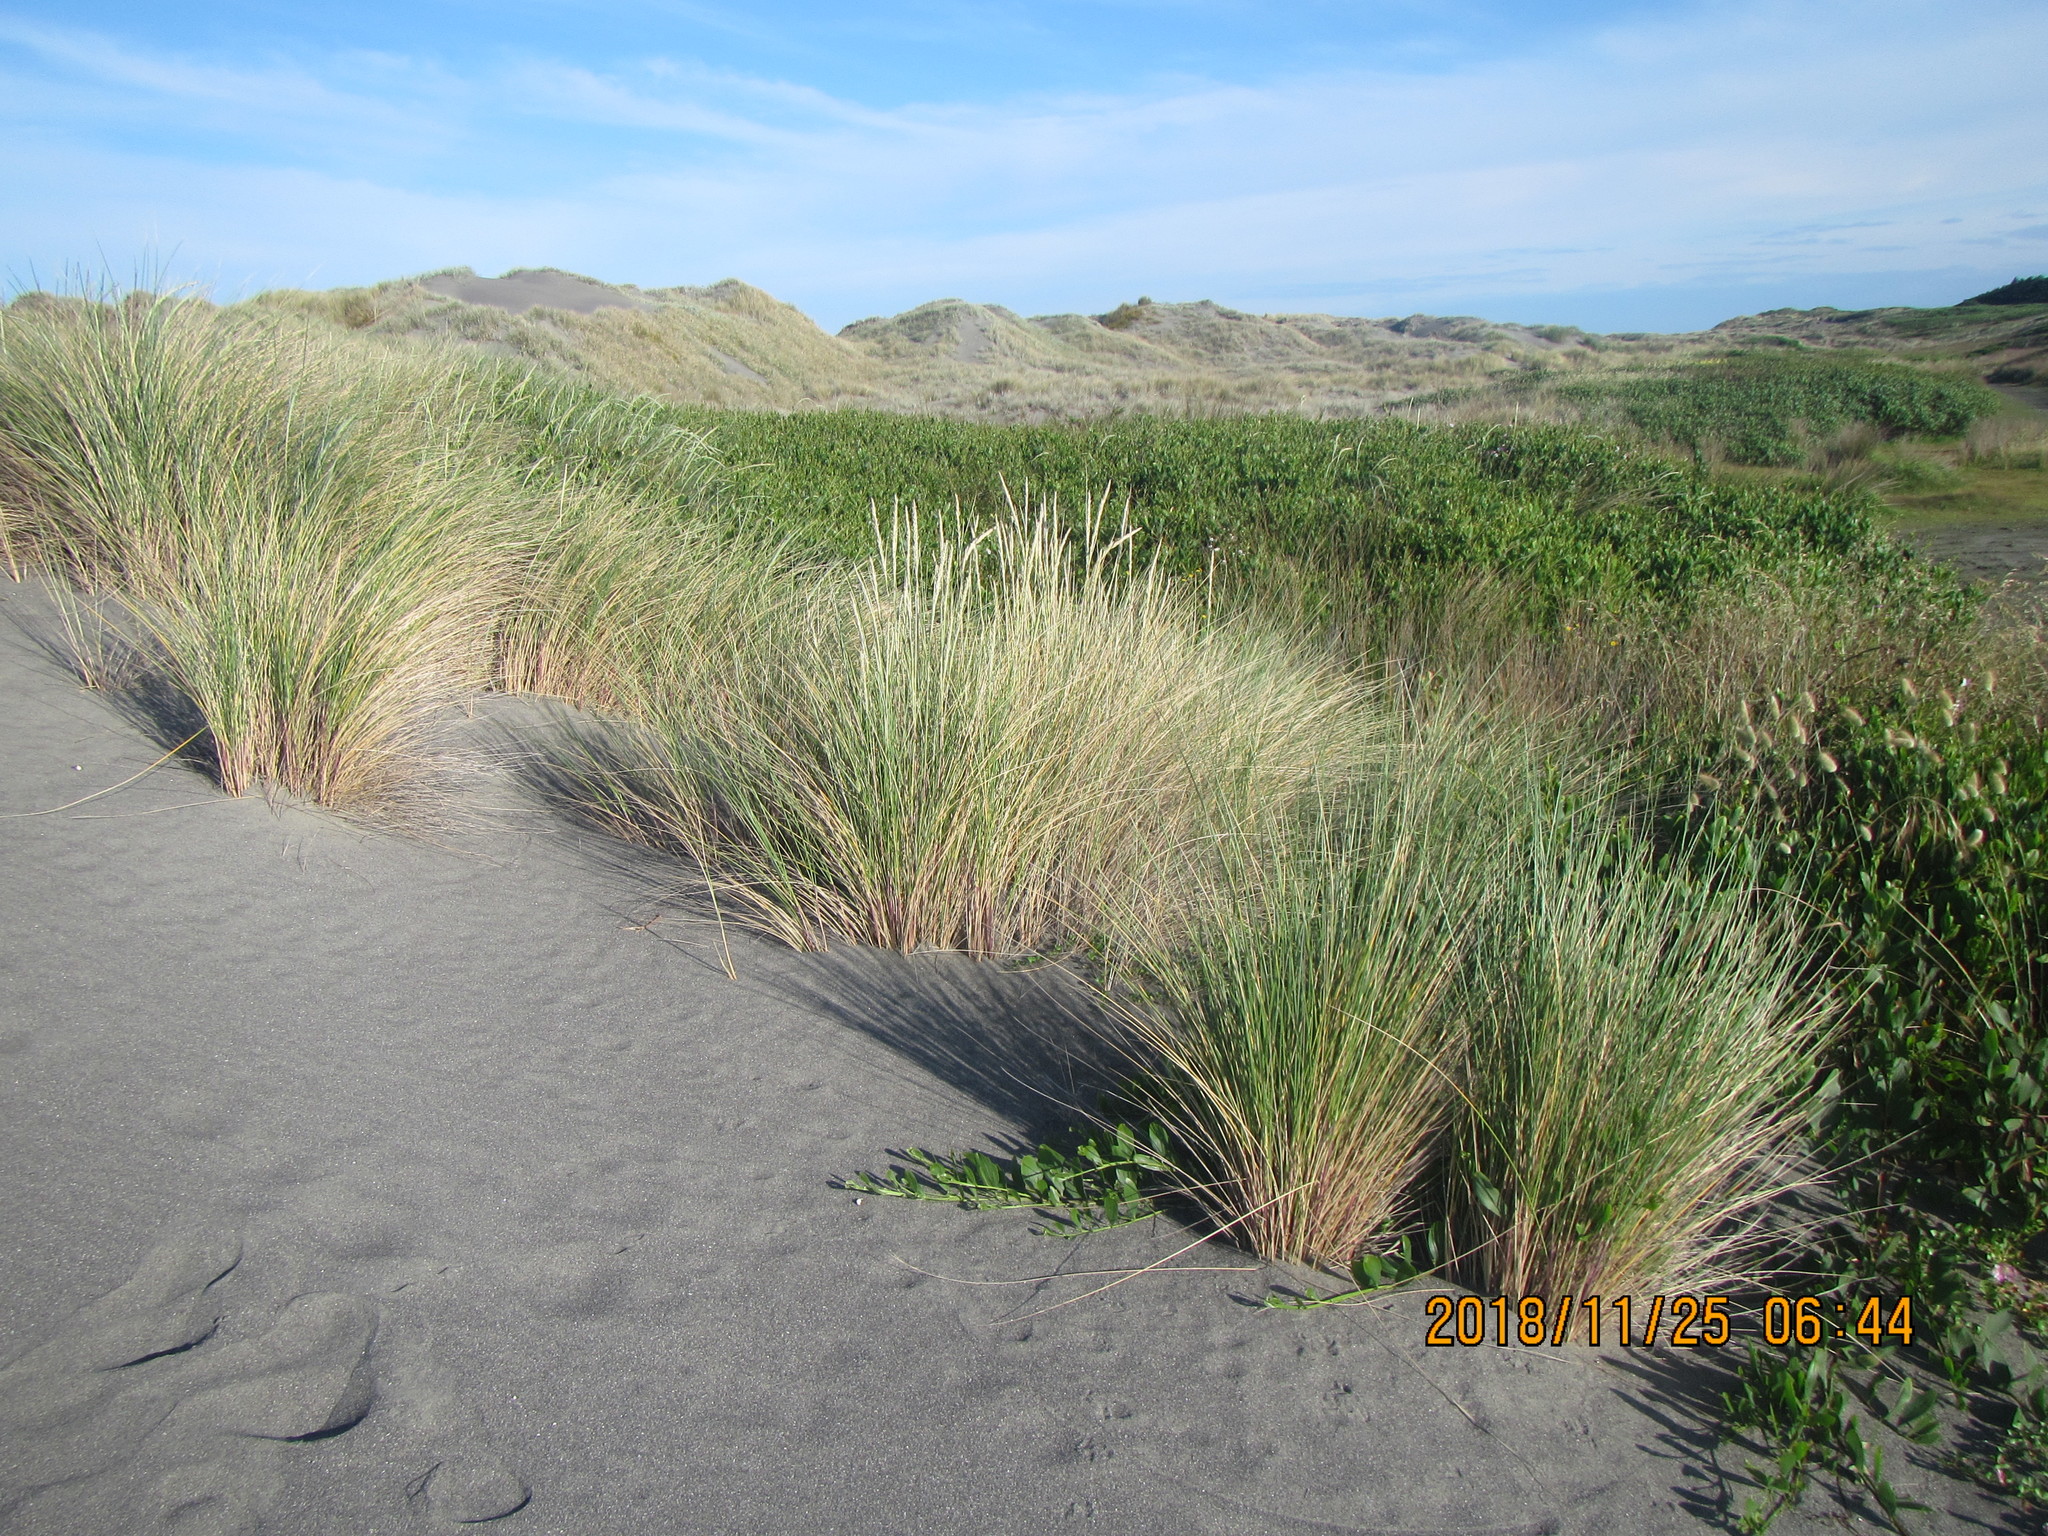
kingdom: Plantae
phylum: Tracheophyta
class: Liliopsida
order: Poales
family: Poaceae
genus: Calamagrostis
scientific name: Calamagrostis arenaria
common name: European beachgrass
